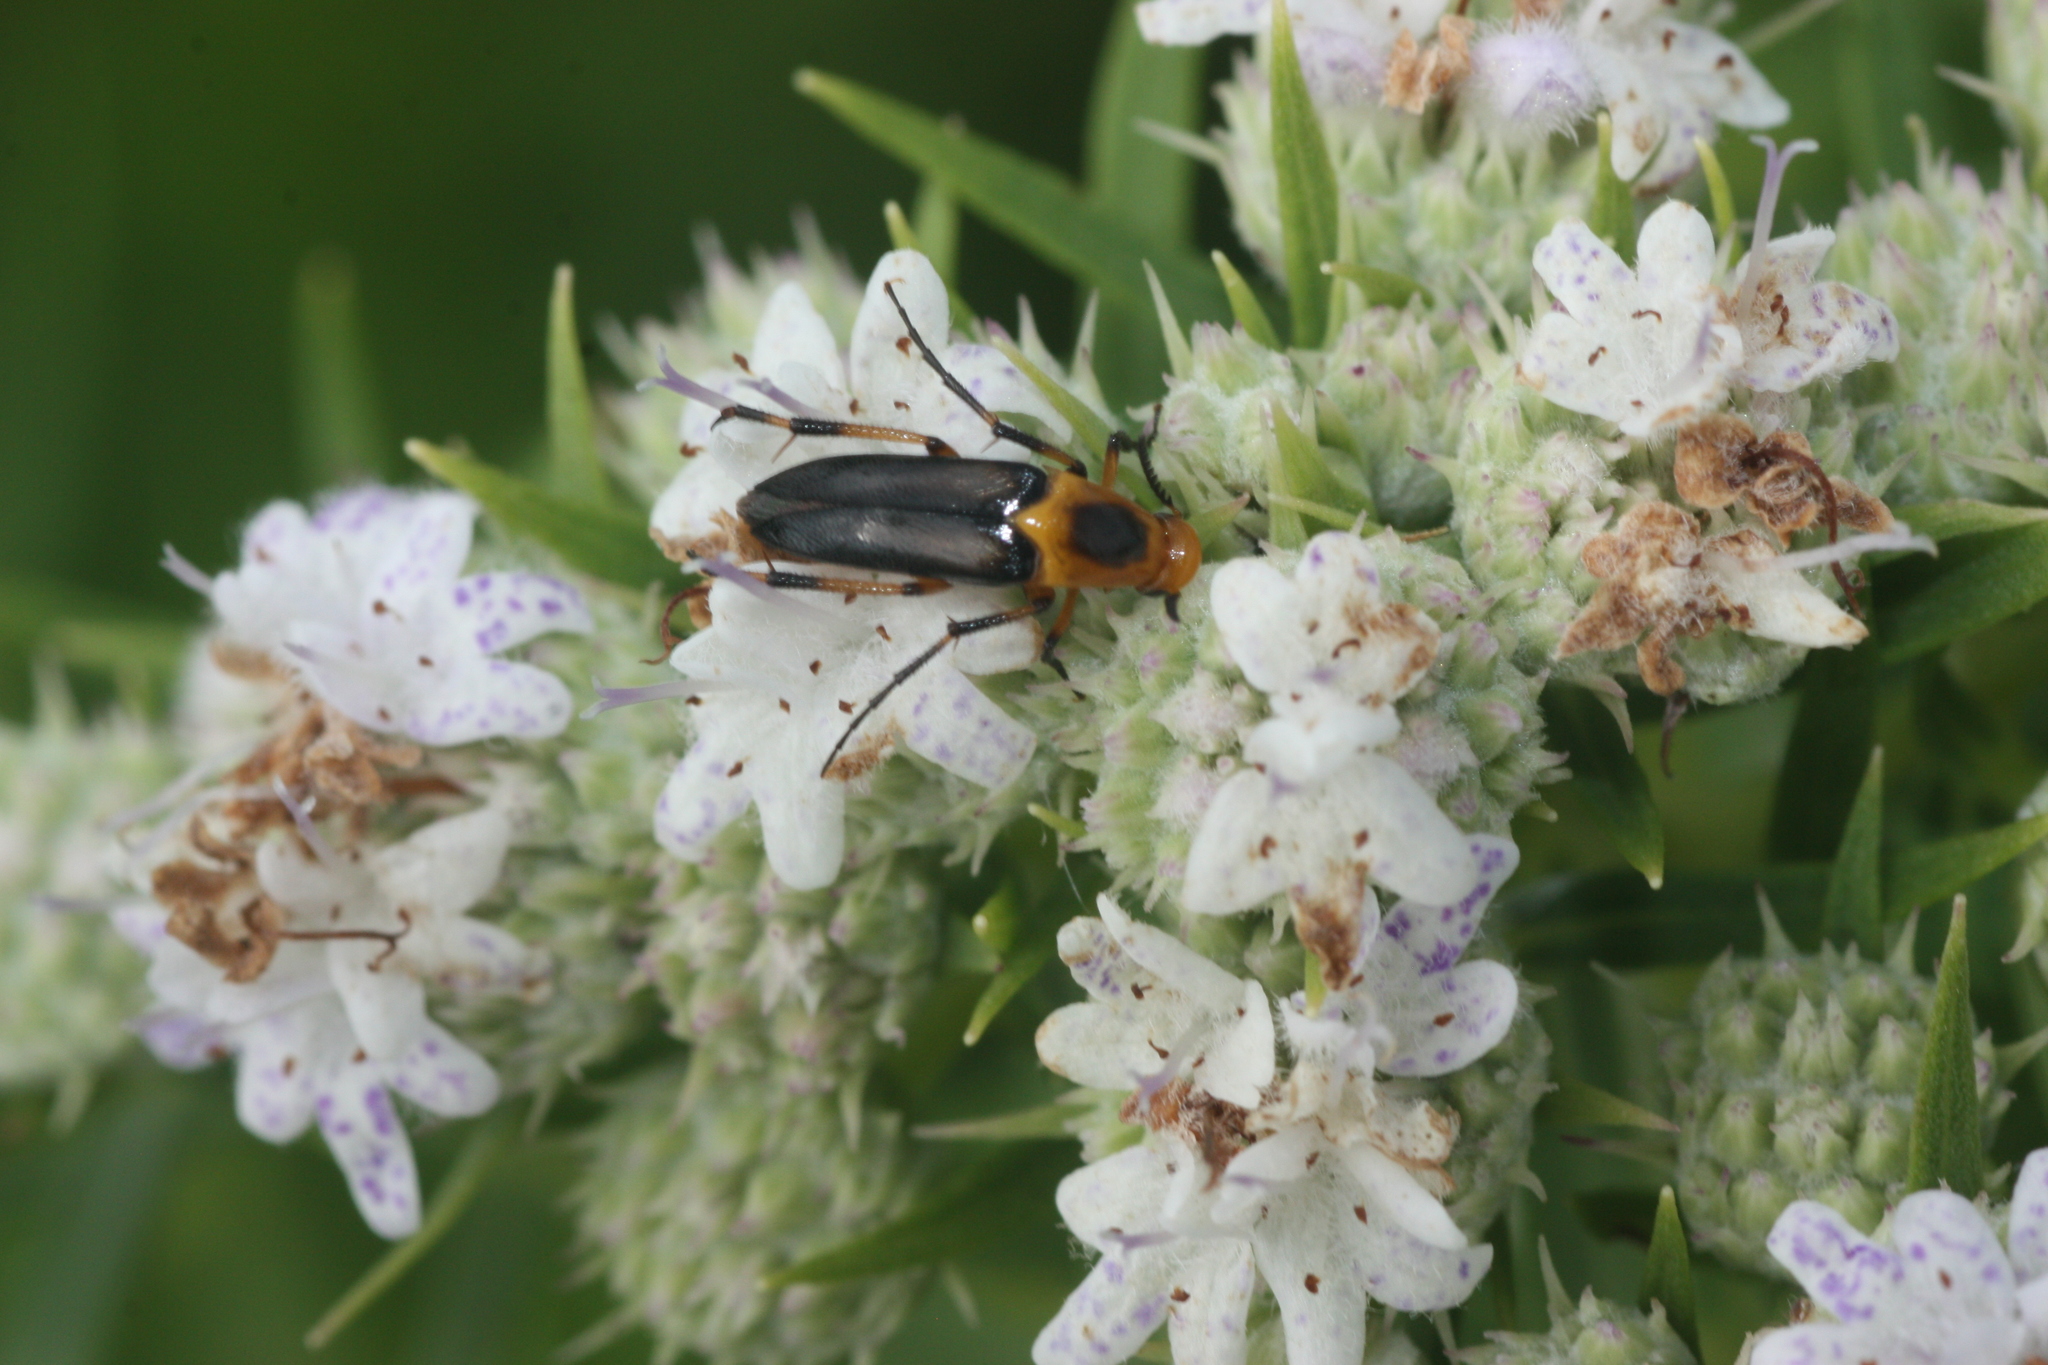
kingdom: Animalia
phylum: Arthropoda
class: Insecta
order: Coleoptera
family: Ripiphoridae
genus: Macrosiagon
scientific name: Macrosiagon limbatum
